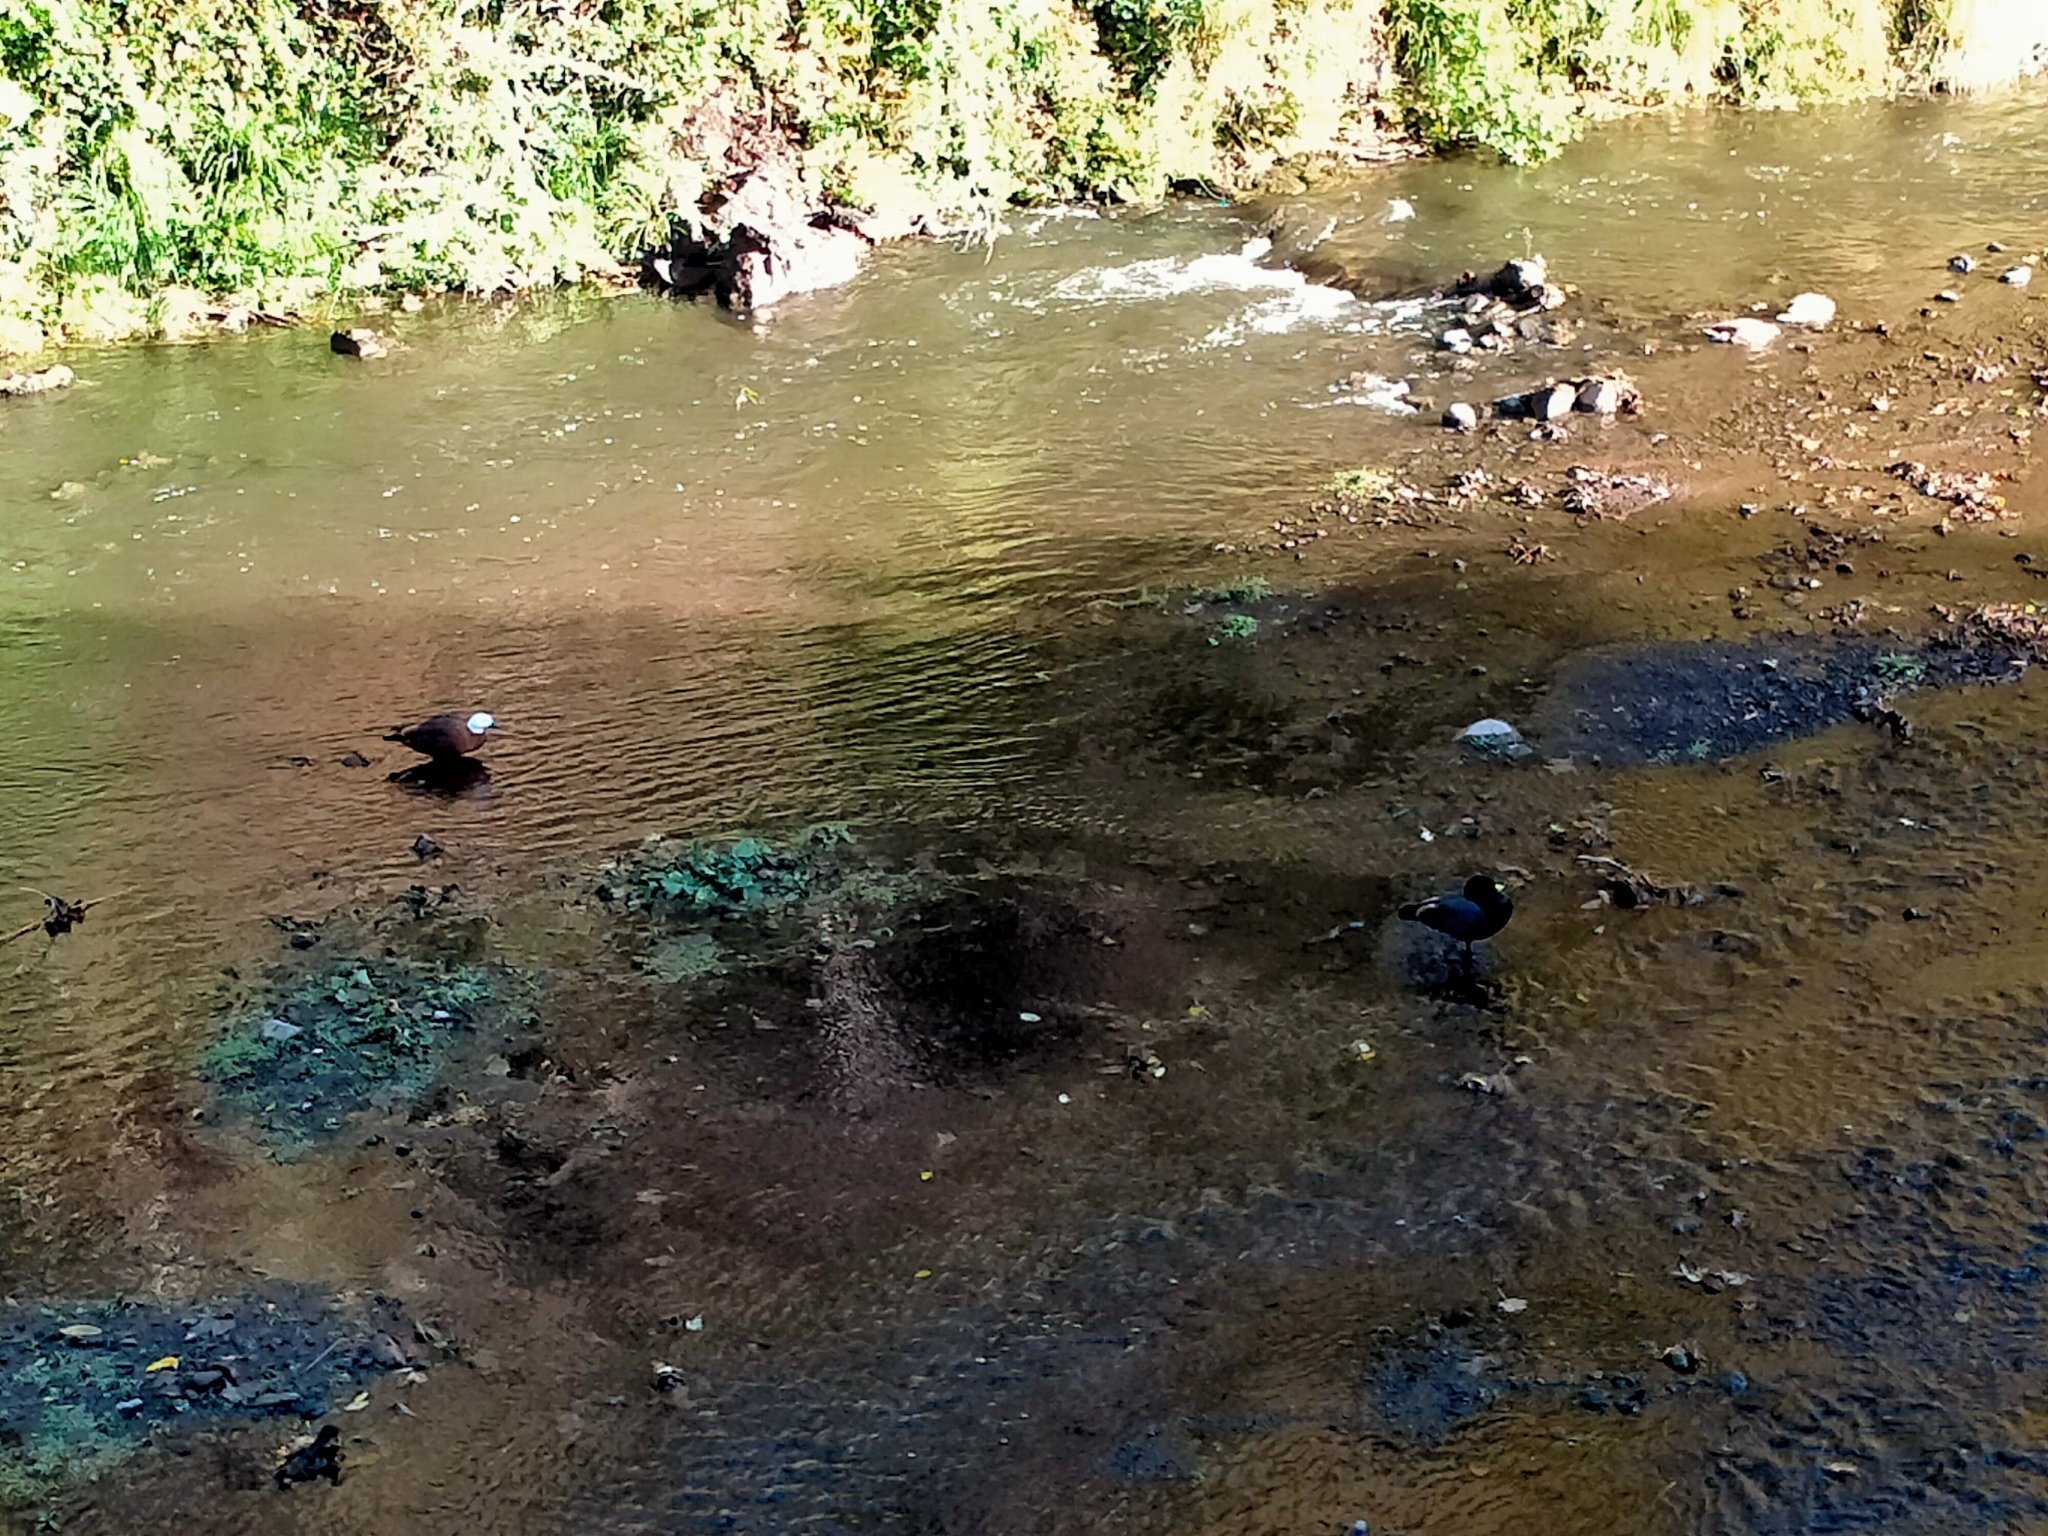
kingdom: Animalia
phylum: Chordata
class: Aves
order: Anseriformes
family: Anatidae
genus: Tadorna
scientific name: Tadorna variegata
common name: Paradise shelduck
